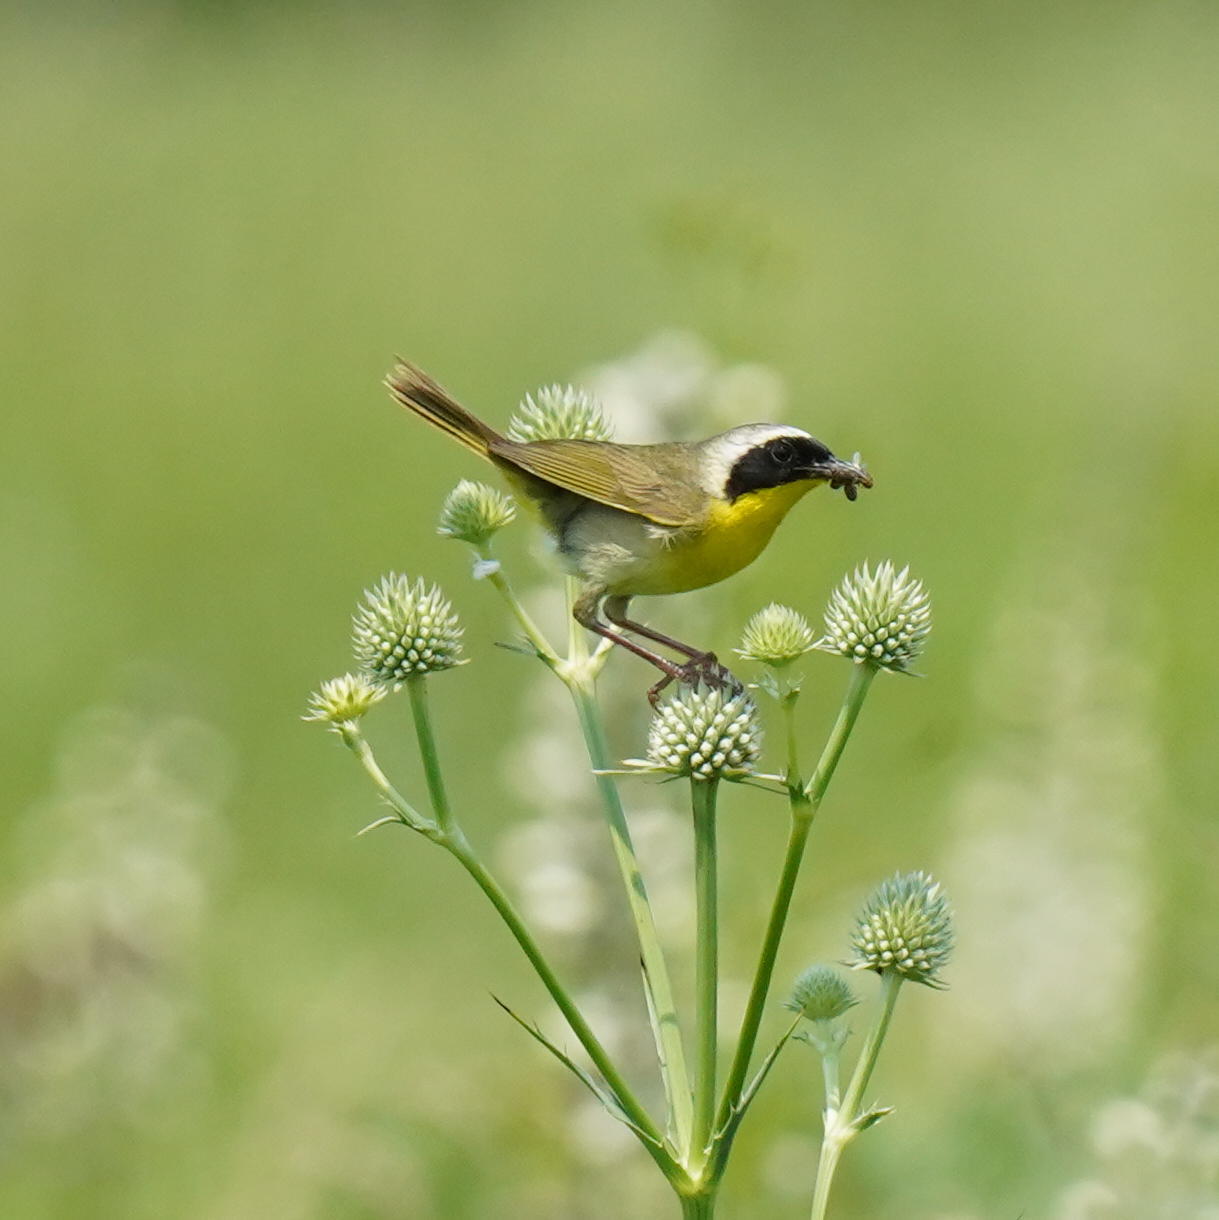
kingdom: Animalia
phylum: Chordata
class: Aves
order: Passeriformes
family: Parulidae
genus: Geothlypis
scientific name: Geothlypis trichas
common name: Common yellowthroat
